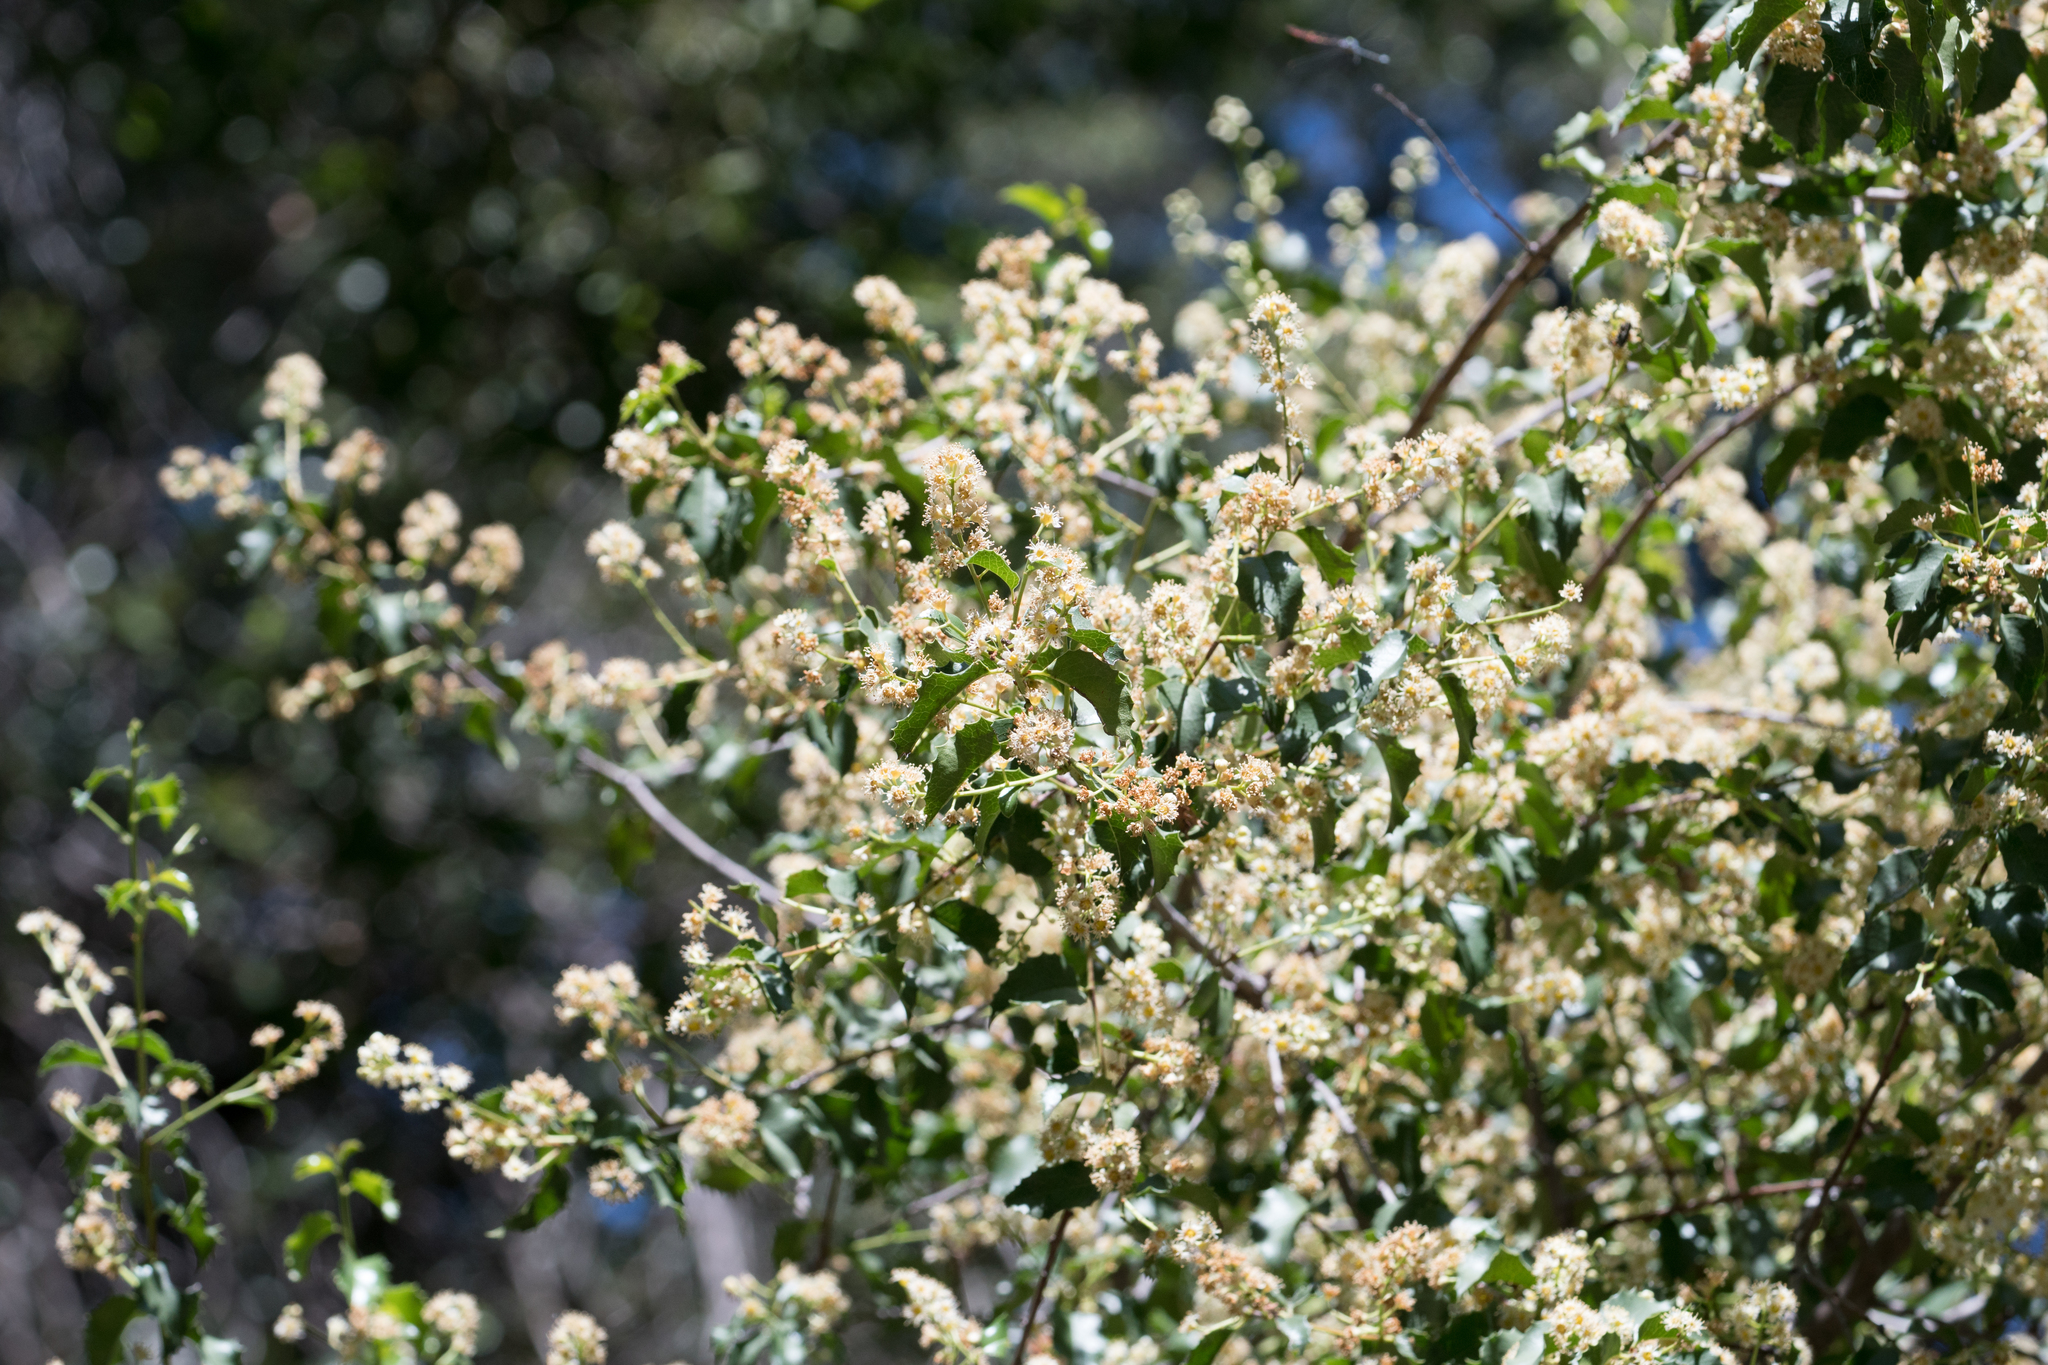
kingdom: Plantae
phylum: Tracheophyta
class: Magnoliopsida
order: Rosales
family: Rosaceae
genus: Prunus
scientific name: Prunus ilicifolia
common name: Hollyleaf cherry
